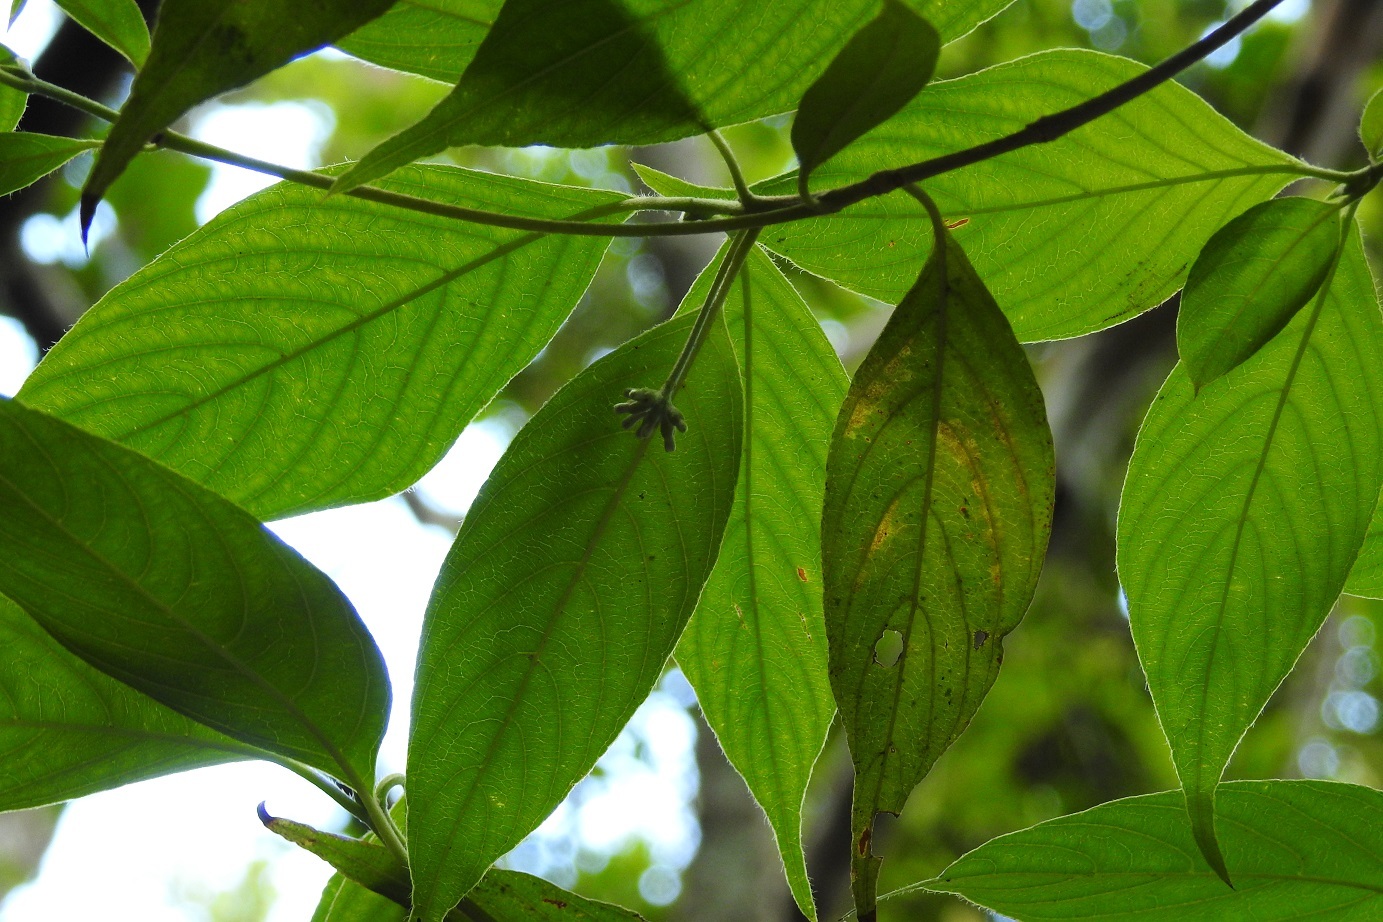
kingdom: Plantae
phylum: Tracheophyta
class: Magnoliopsida
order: Gentianales
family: Rubiaceae
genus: Arachnothryx
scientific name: Arachnothryx chiapensis
